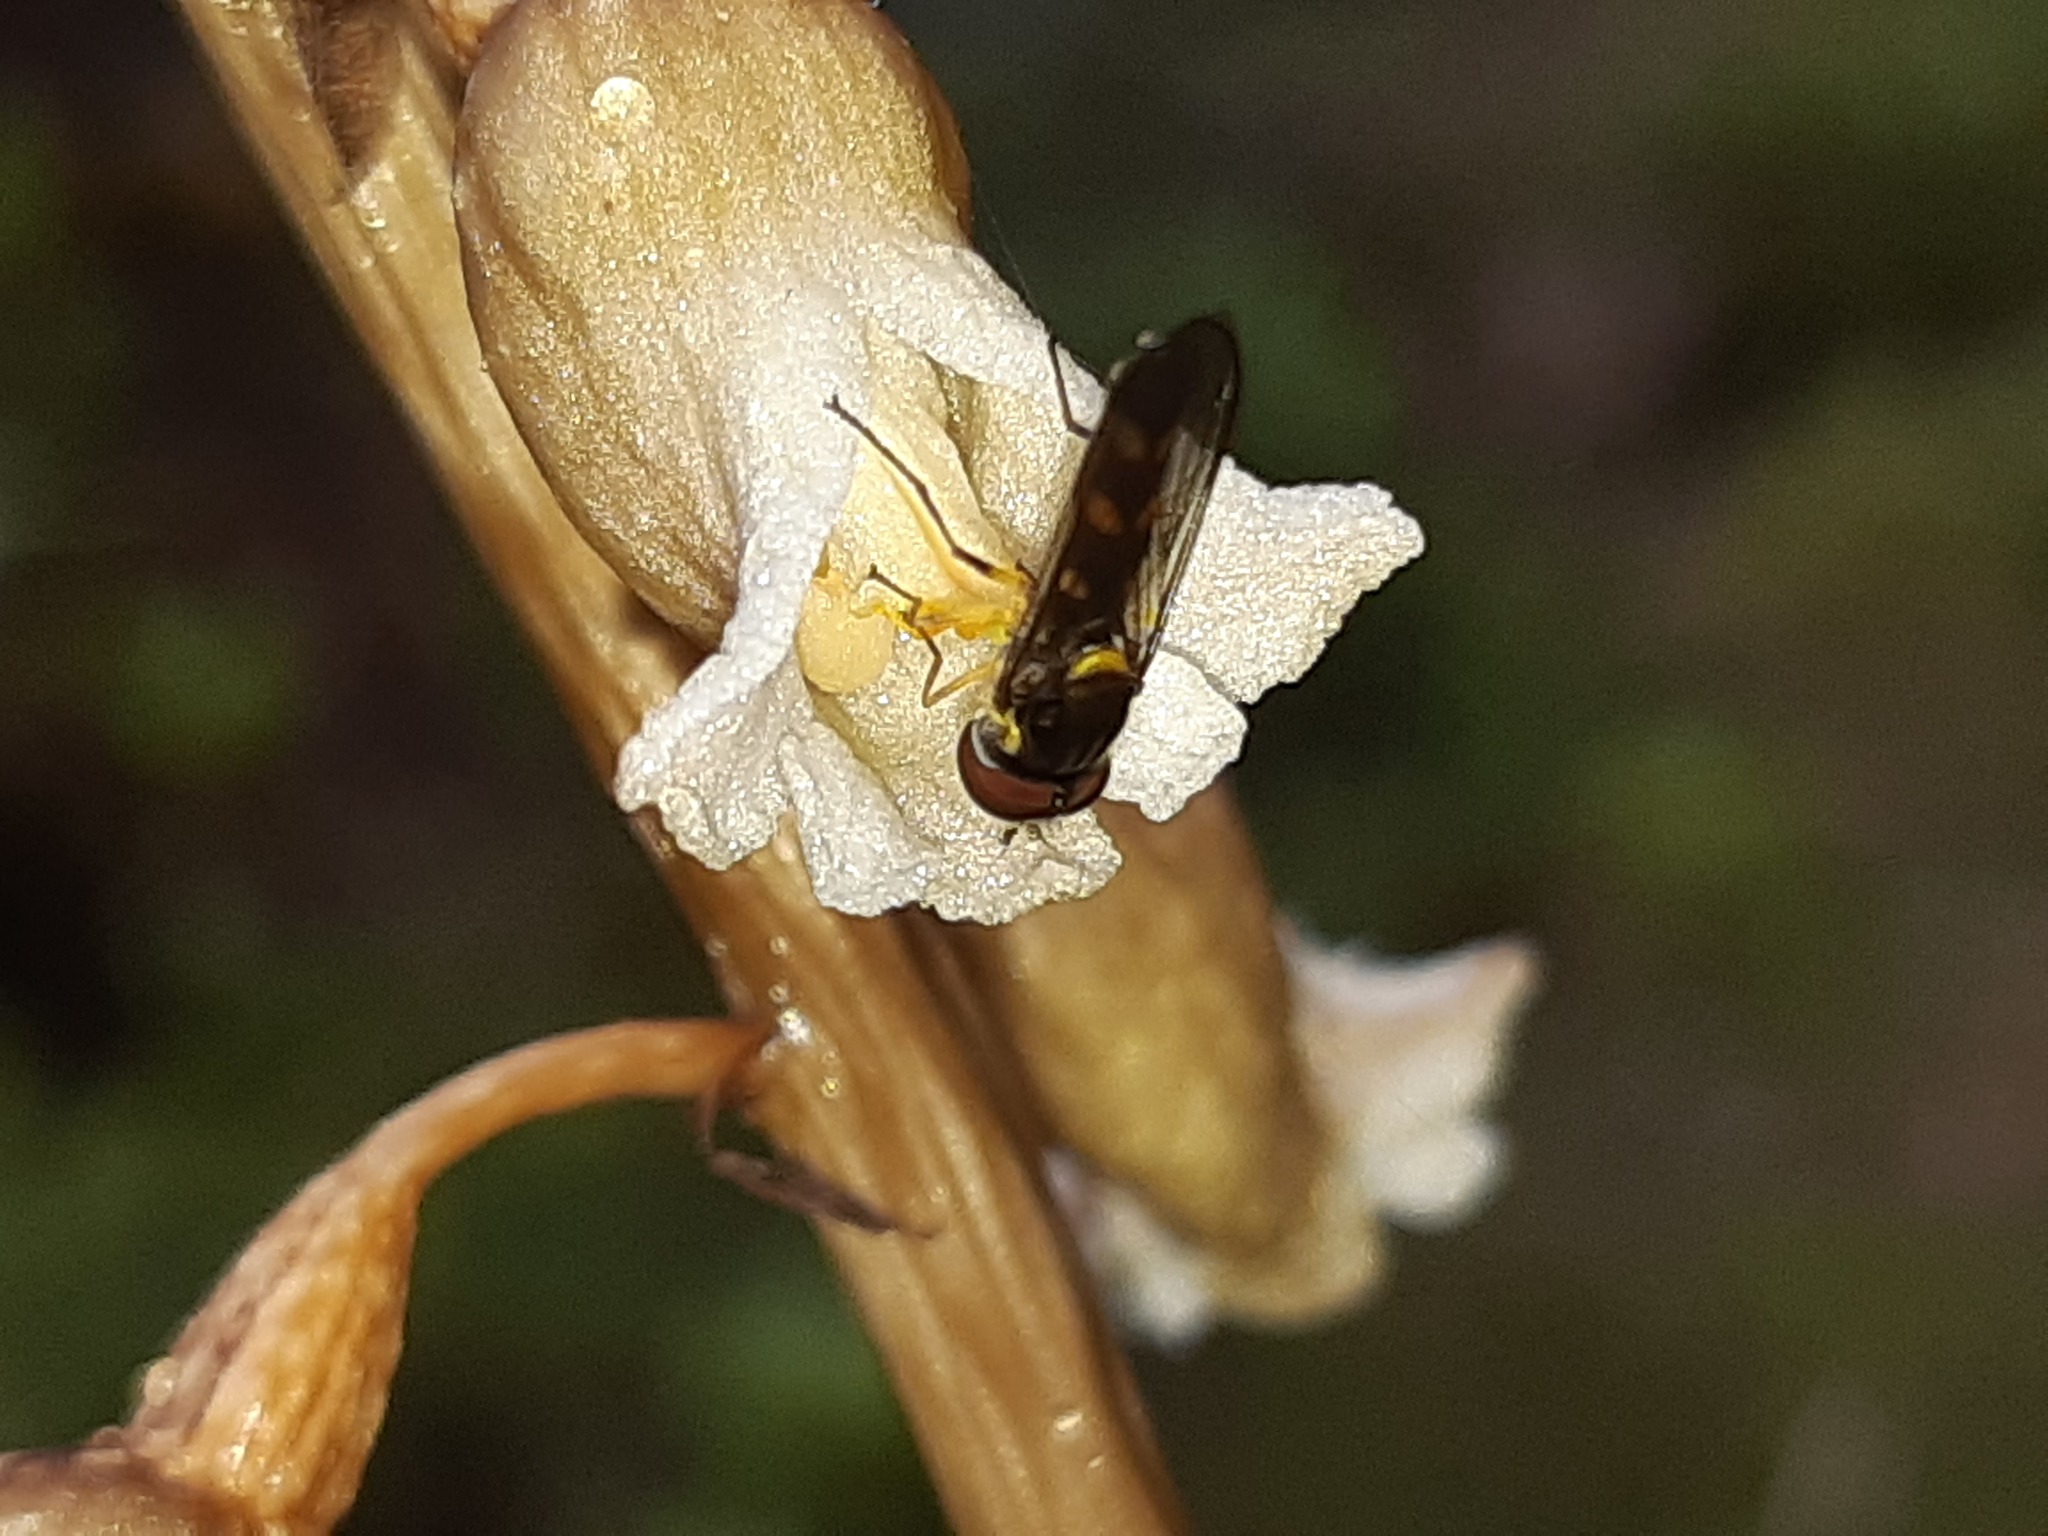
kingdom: Animalia
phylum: Arthropoda
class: Insecta
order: Diptera
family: Syrphidae
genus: Melangyna
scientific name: Melangyna novaezelandiae
